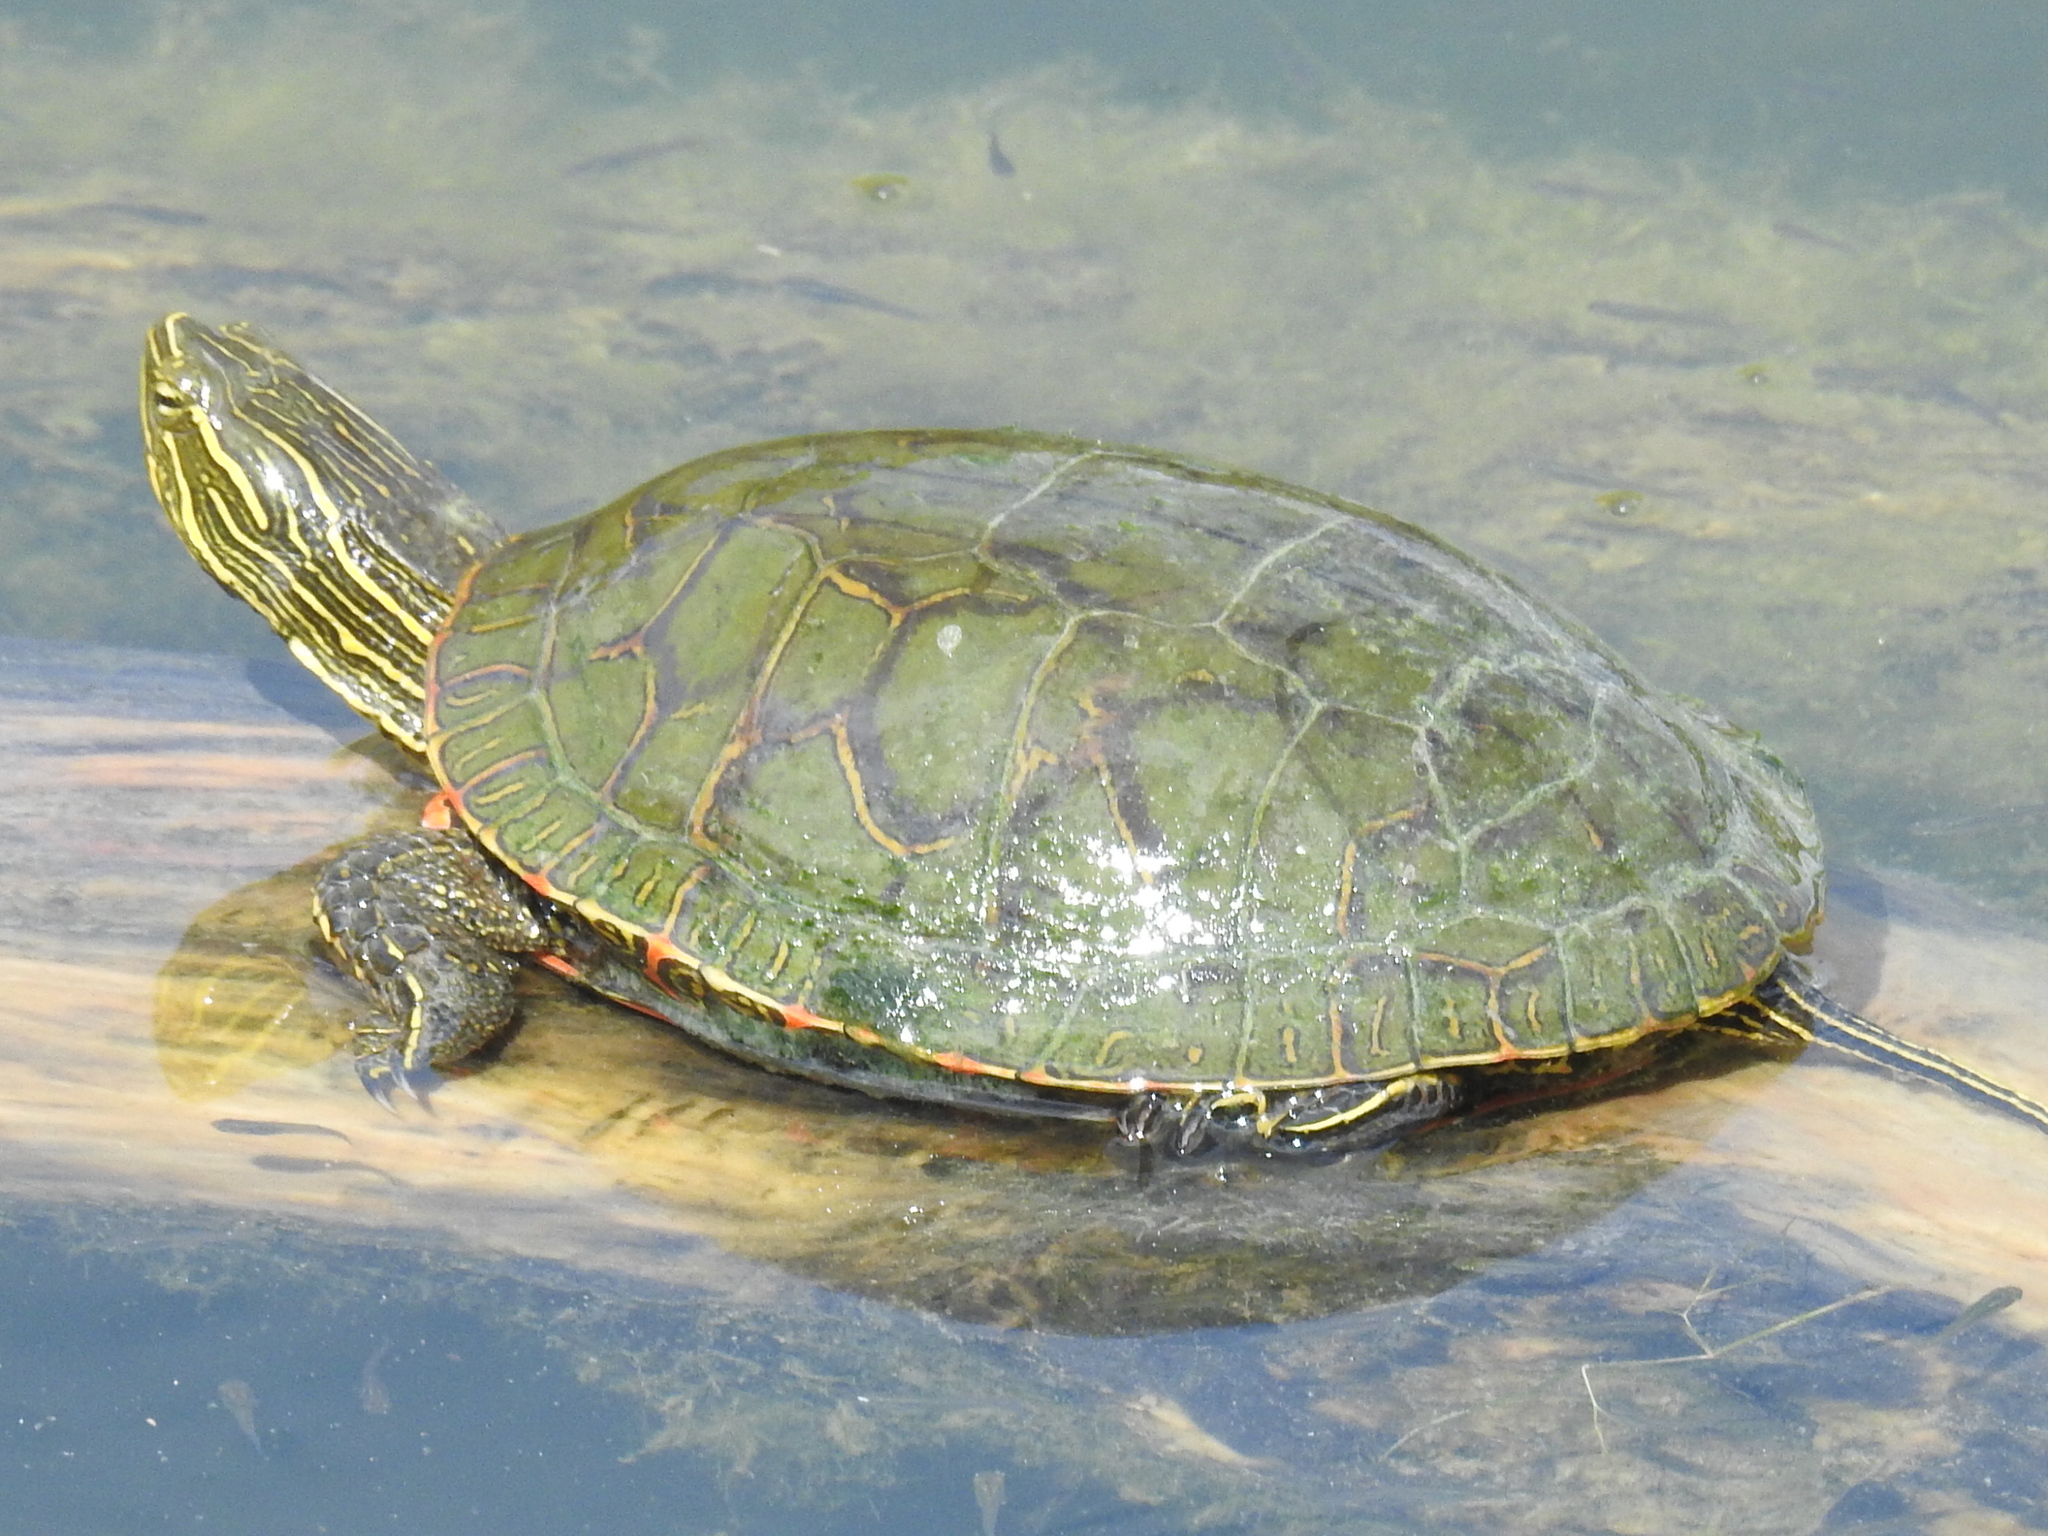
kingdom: Animalia
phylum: Chordata
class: Testudines
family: Emydidae
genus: Chrysemys
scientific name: Chrysemys picta
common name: Painted turtle
